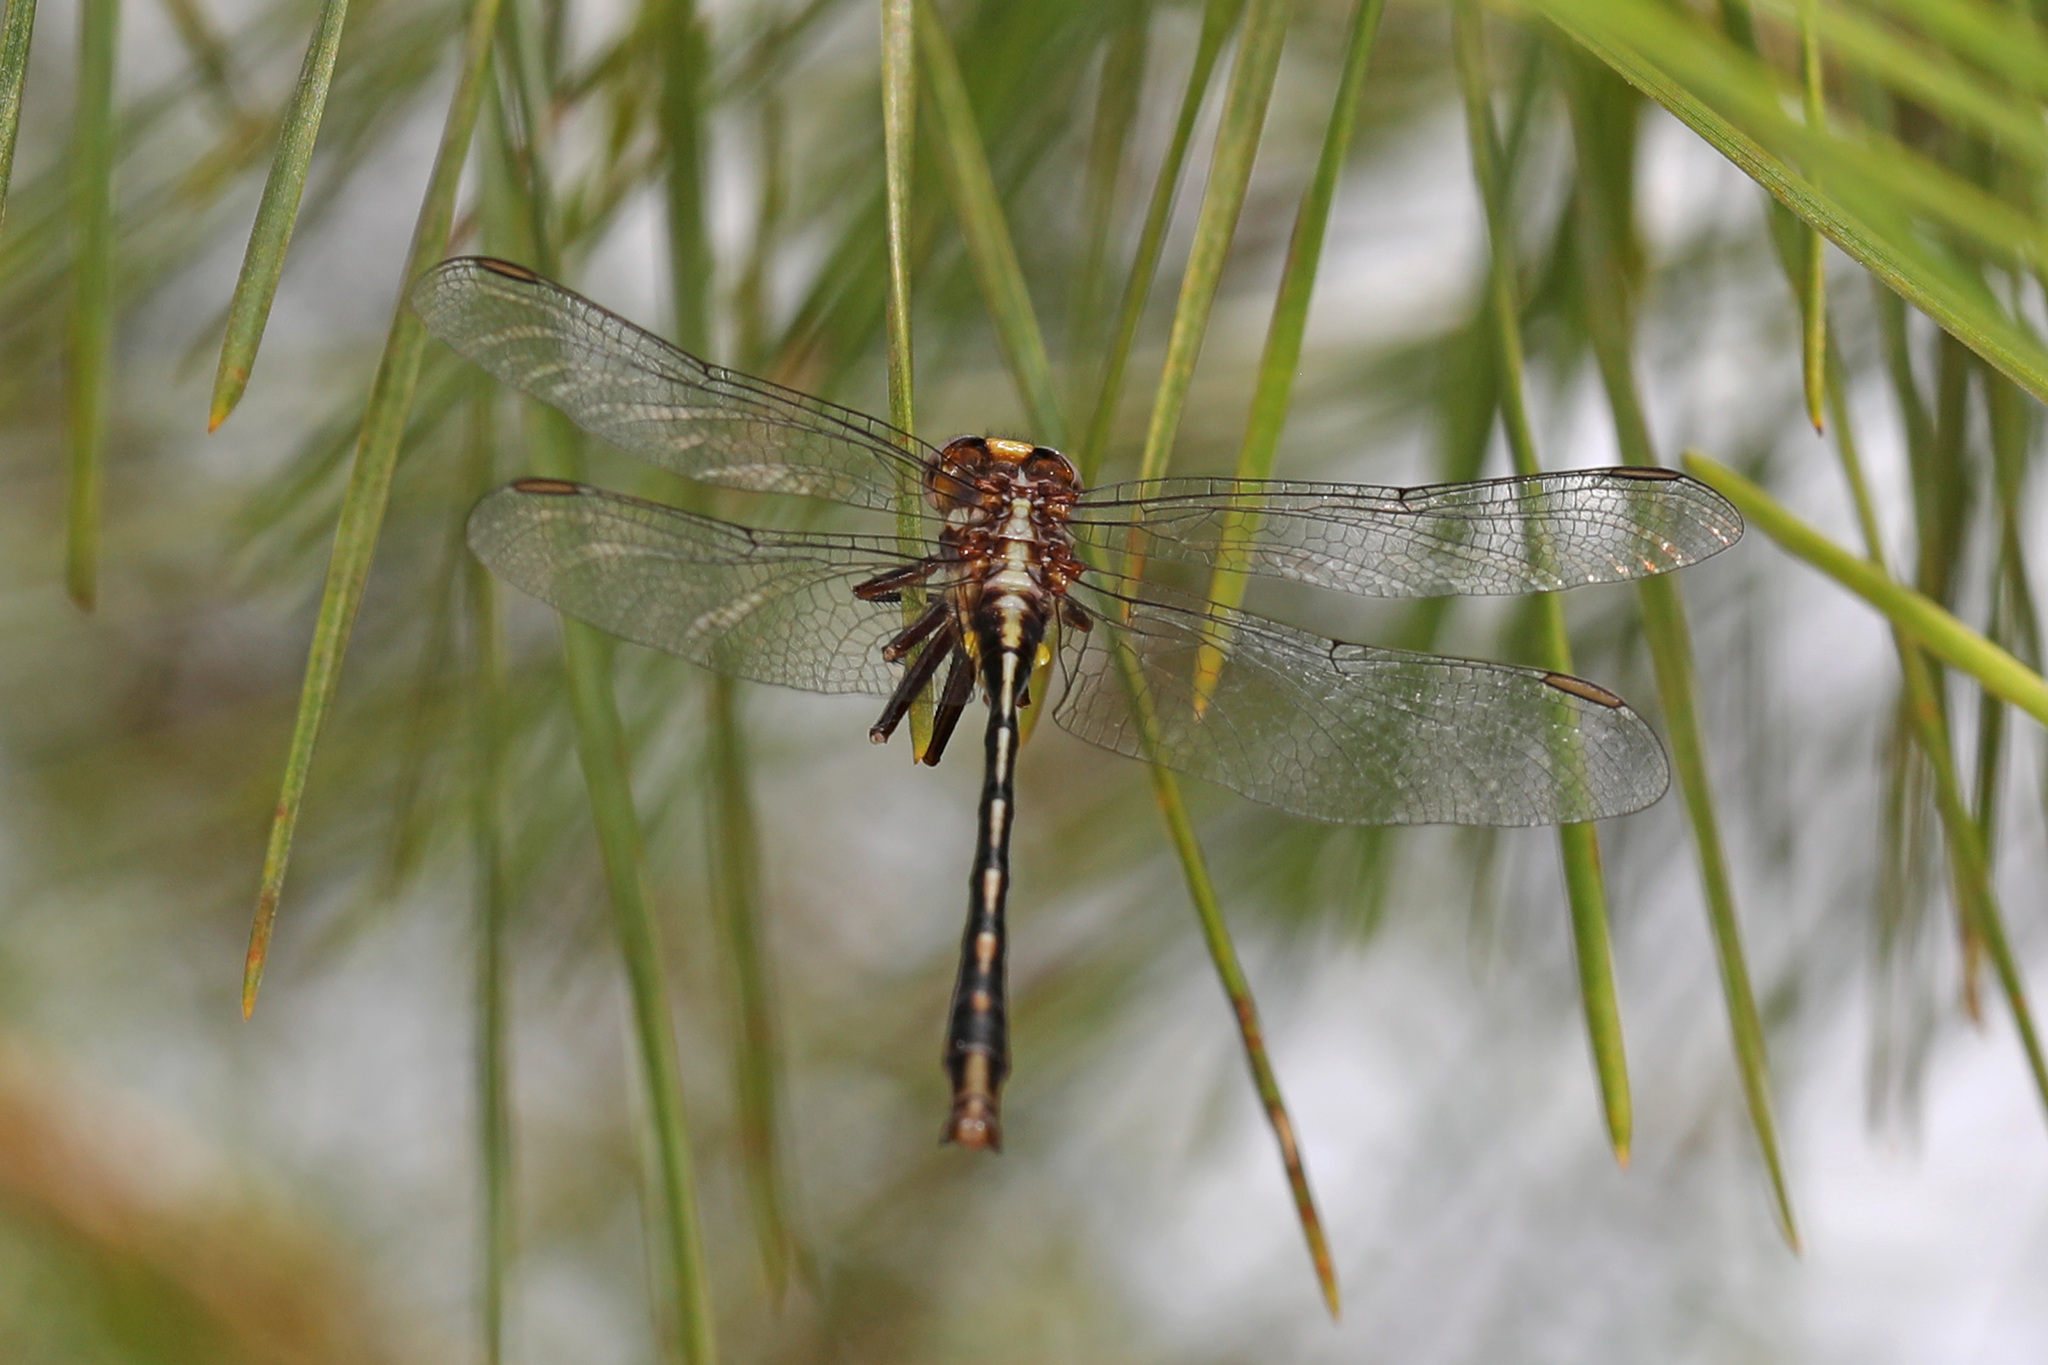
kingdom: Animalia
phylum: Arthropoda
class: Insecta
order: Odonata
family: Gomphidae
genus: Phanogomphus
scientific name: Phanogomphus exilis
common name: Lancet clubtail
